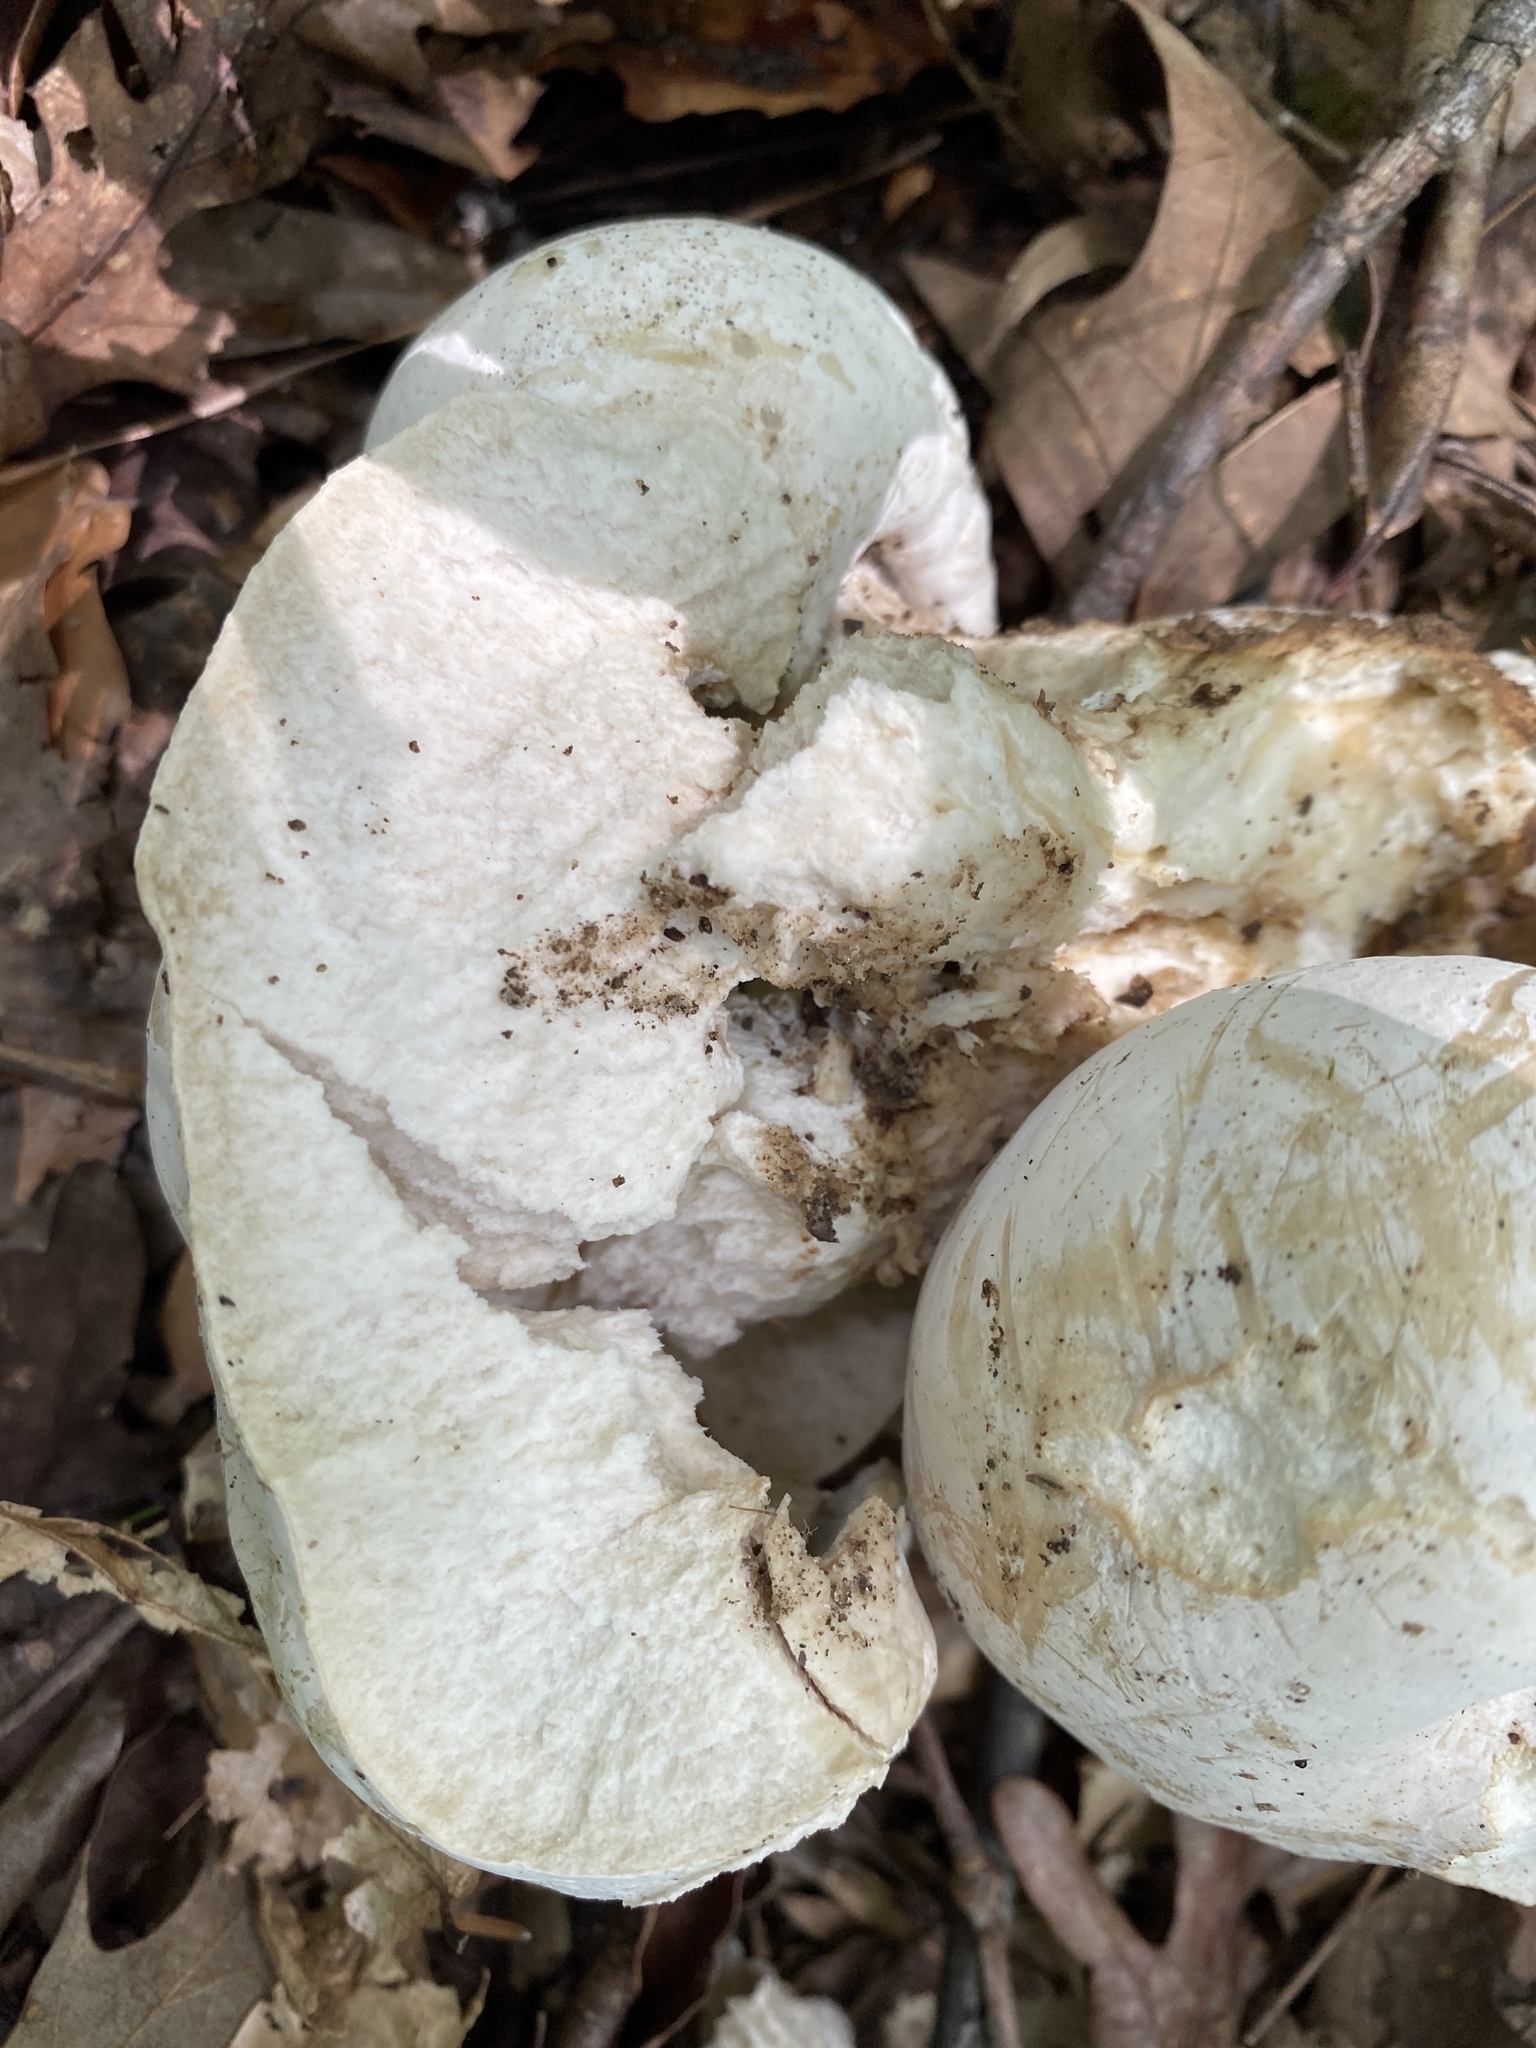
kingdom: Fungi
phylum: Ascomycota
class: Sordariomycetes
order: Hypocreales
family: Hypocreaceae
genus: Hypomyces
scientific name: Hypomyces chrysospermus
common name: Bolete mould
